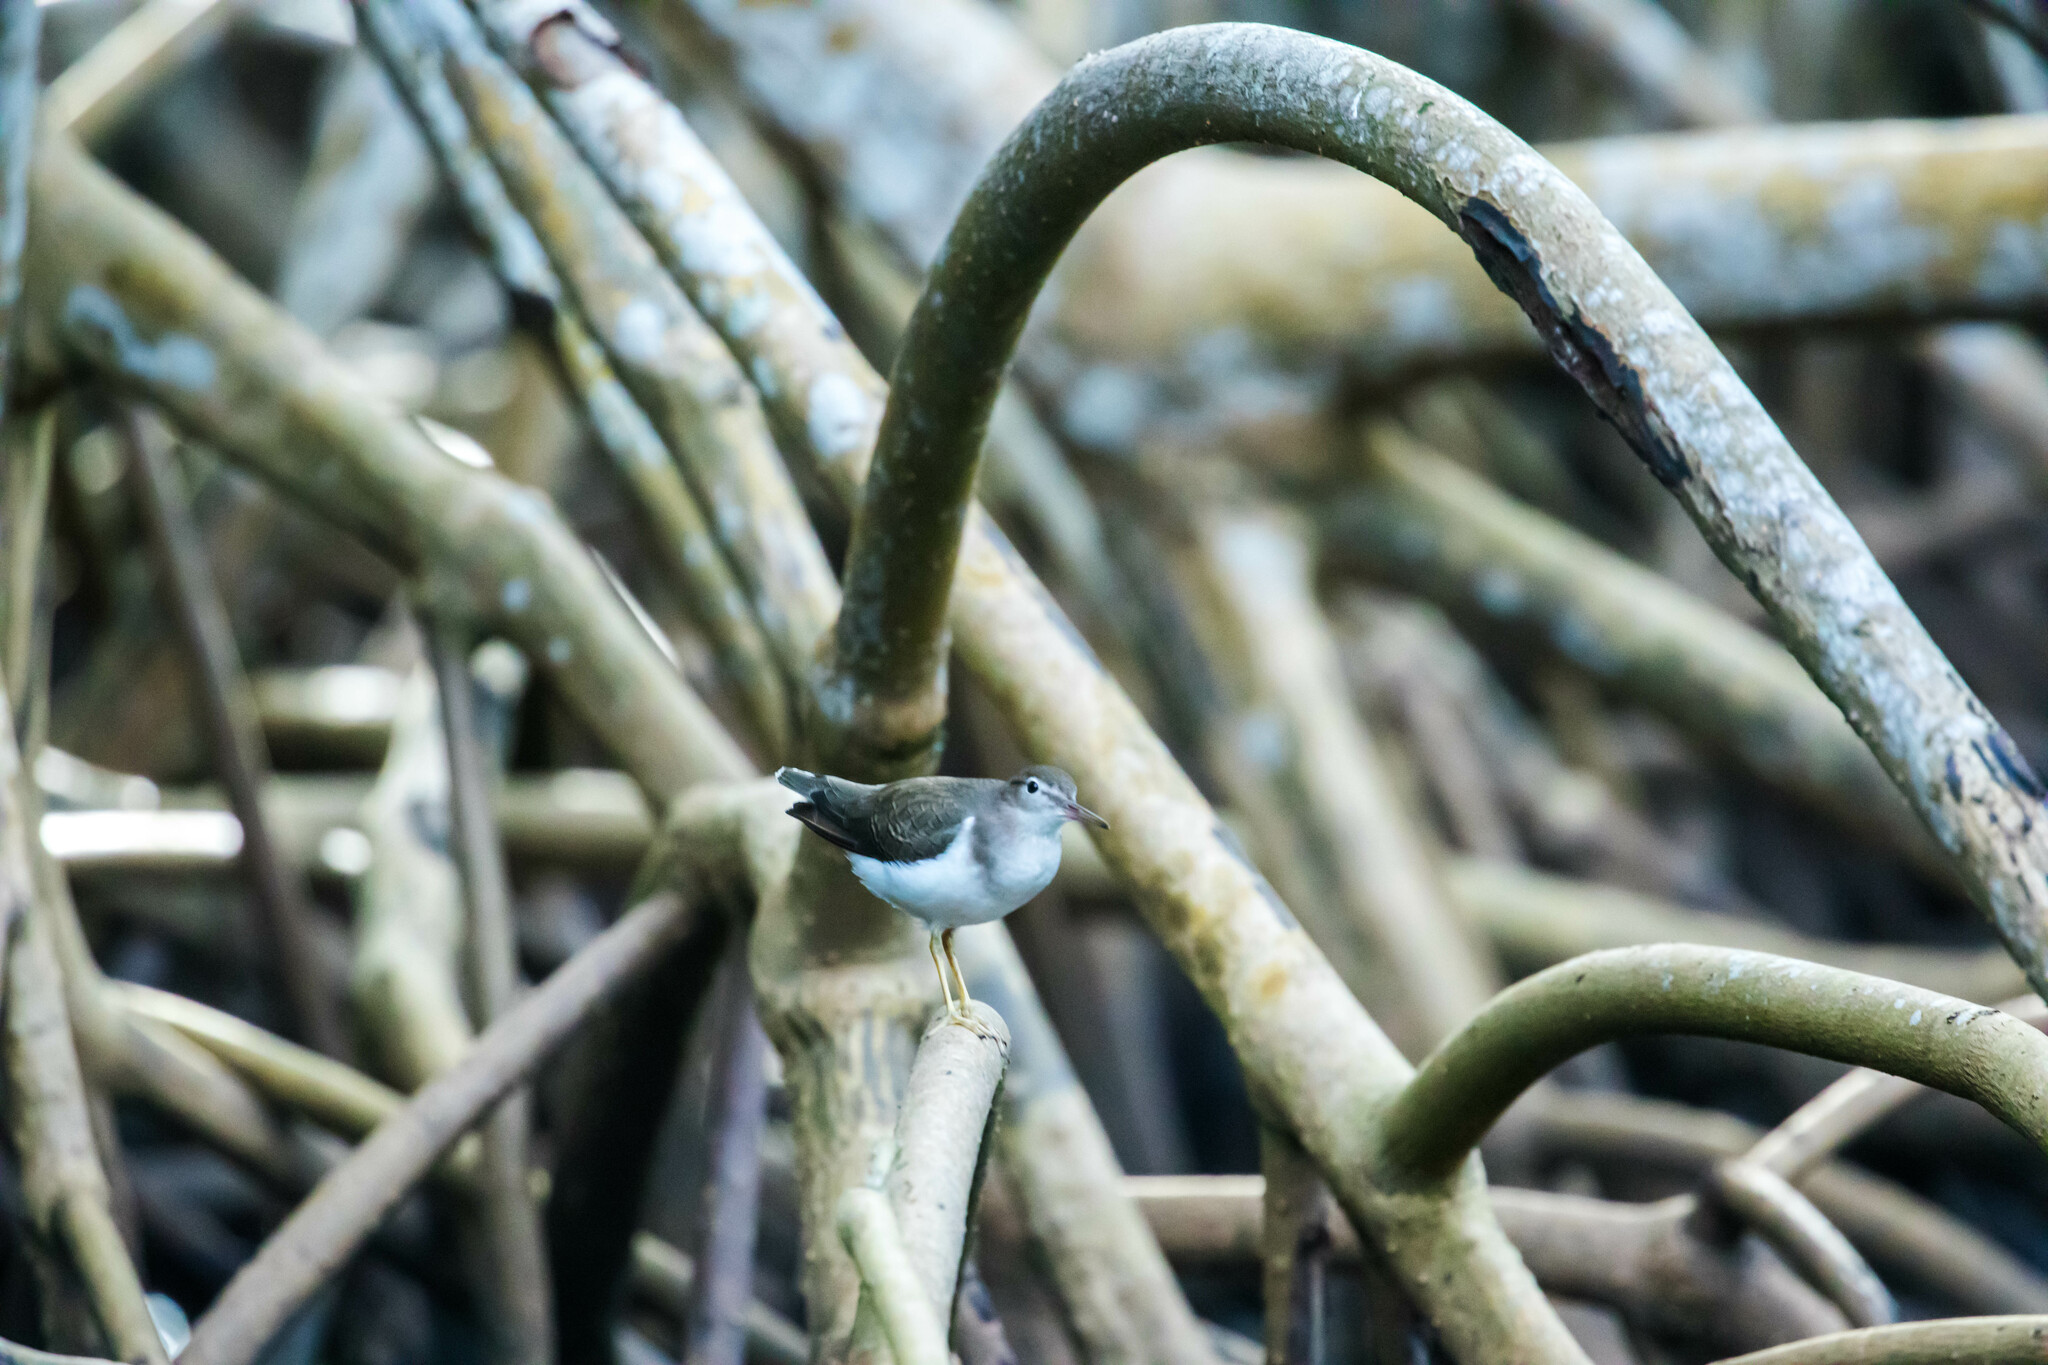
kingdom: Animalia
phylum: Chordata
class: Aves
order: Charadriiformes
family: Scolopacidae
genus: Actitis
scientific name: Actitis macularius
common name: Spotted sandpiper
